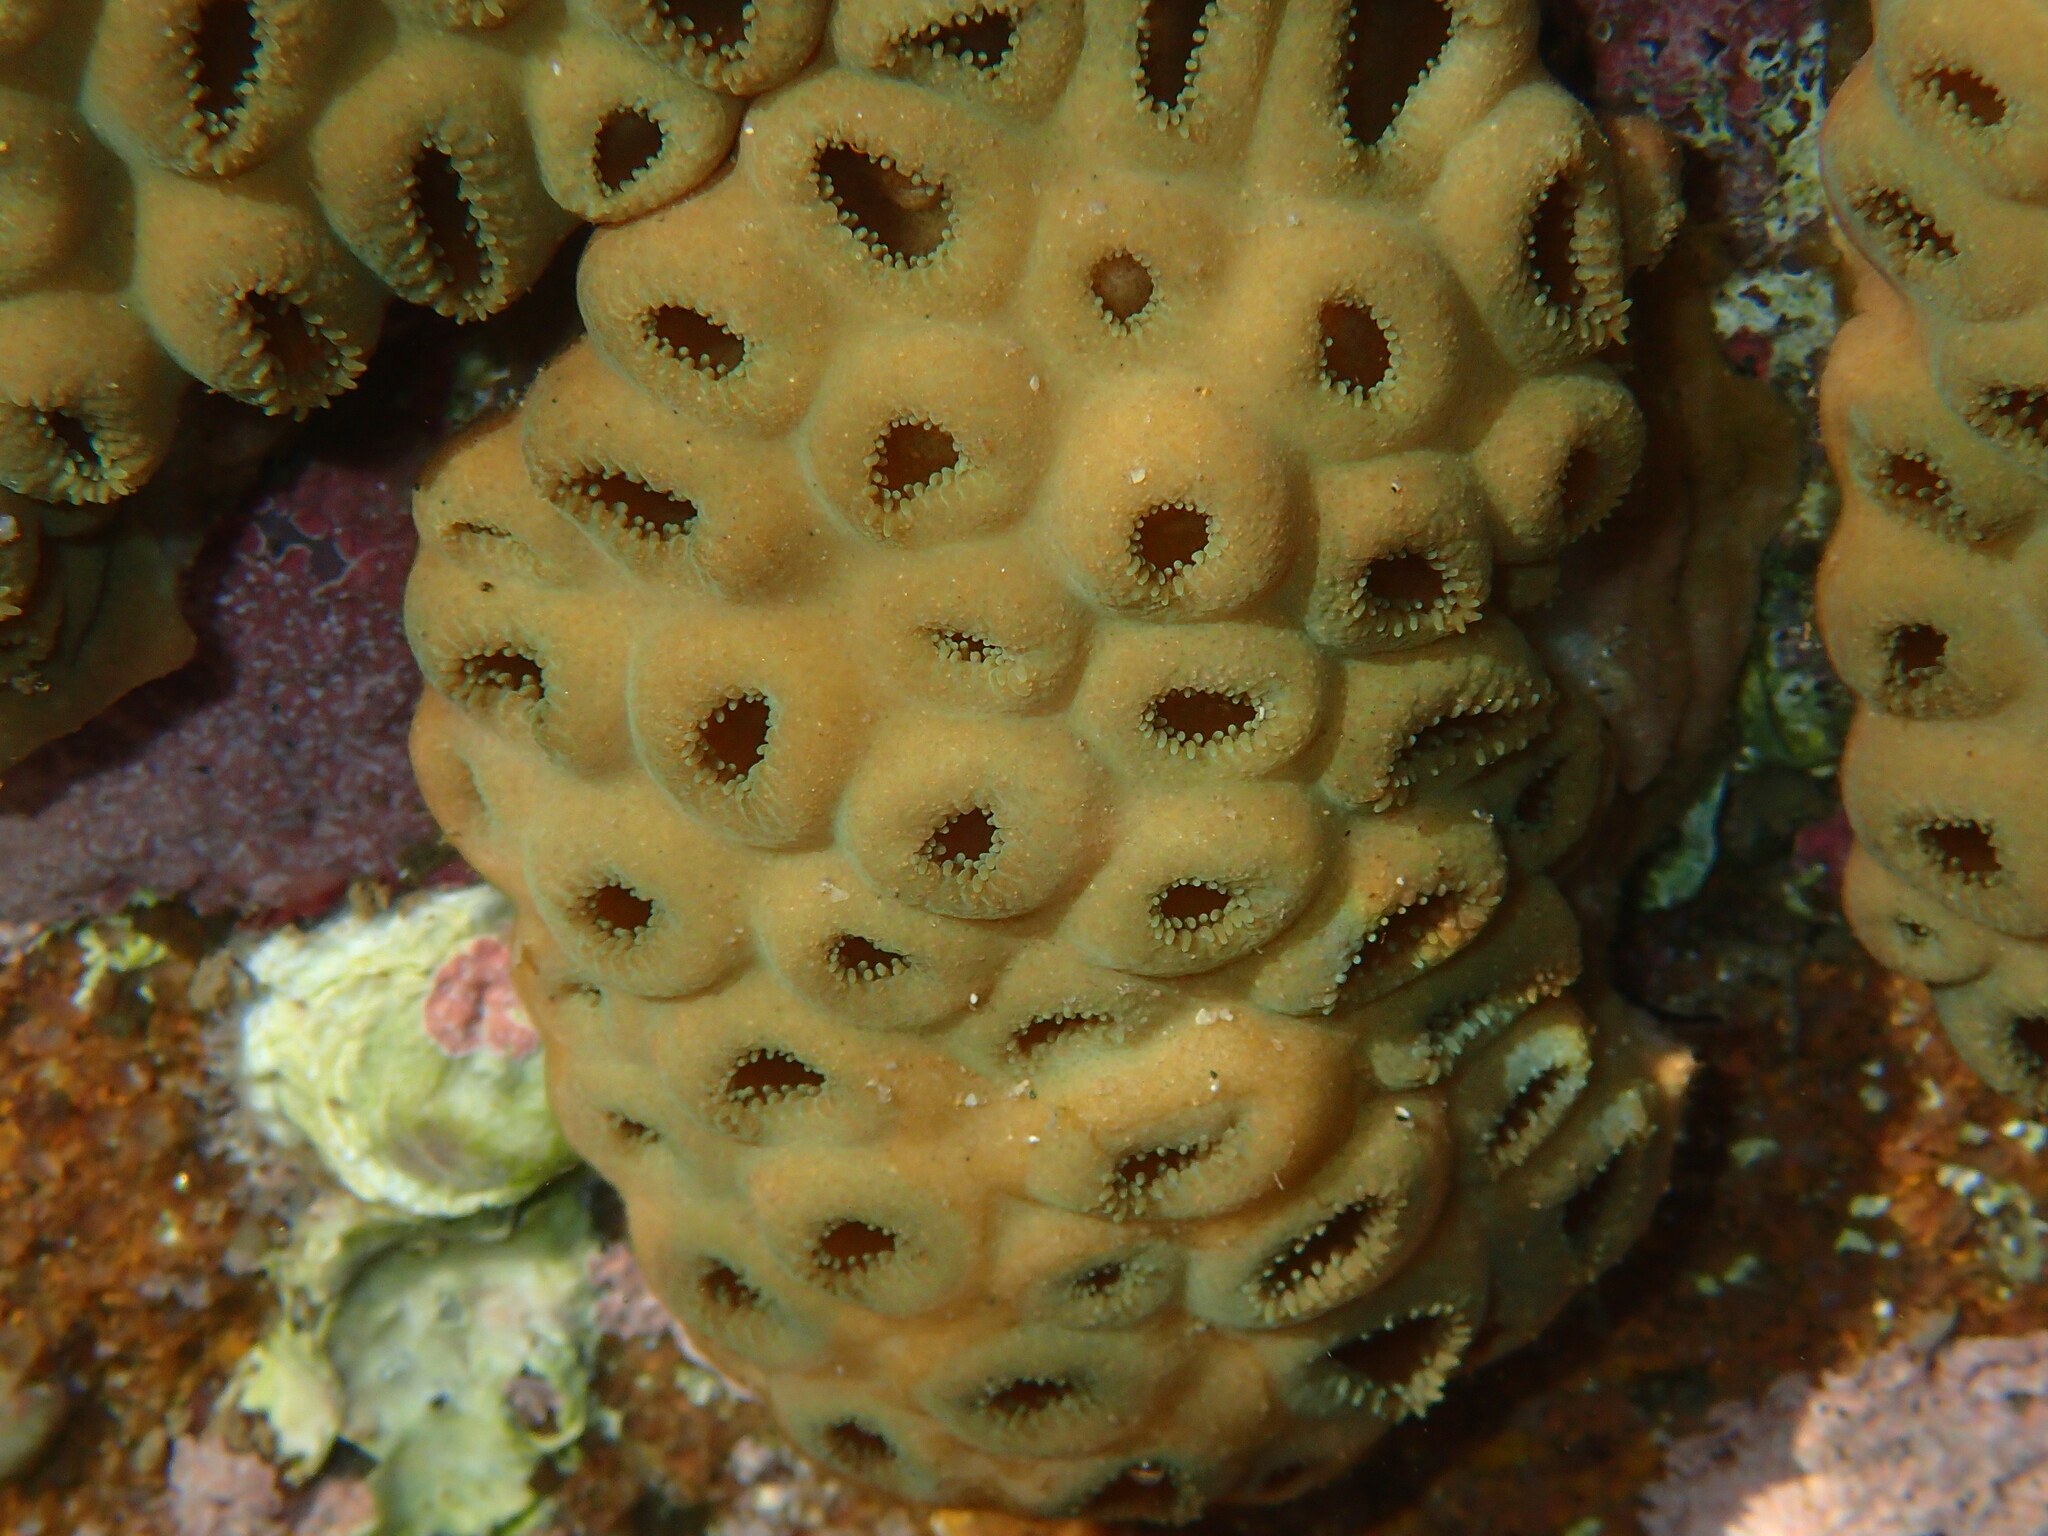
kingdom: Animalia
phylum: Cnidaria
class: Anthozoa
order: Zoantharia
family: Sphenopidae
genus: Palythoa
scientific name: Palythoa tuberculosa
